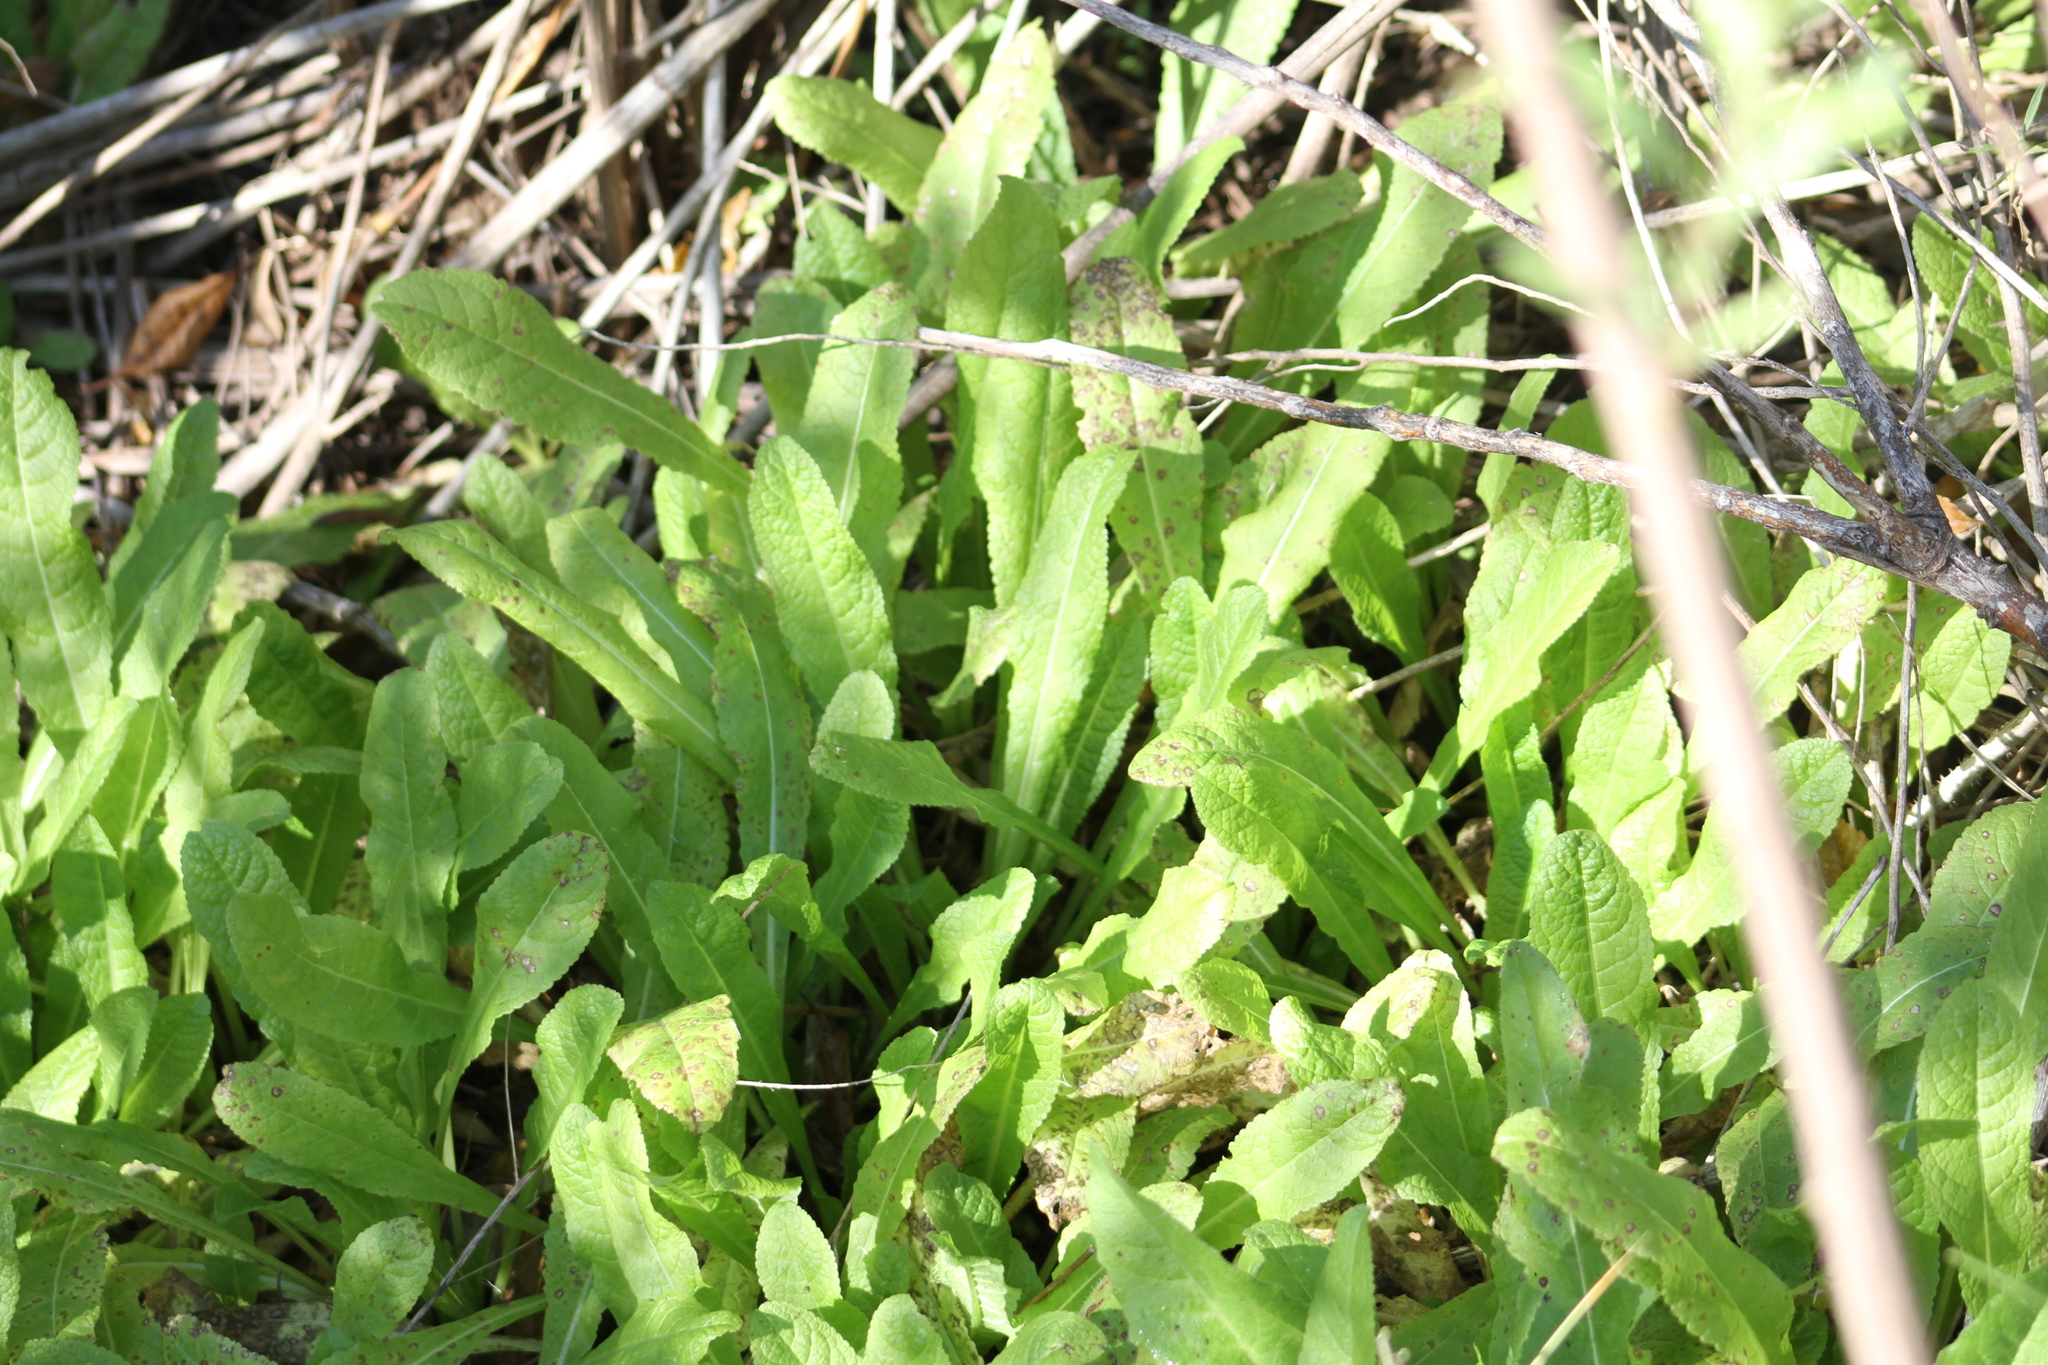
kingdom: Plantae
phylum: Tracheophyta
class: Magnoliopsida
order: Dipsacales
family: Caprifoliaceae
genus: Dipsacus
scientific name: Dipsacus fullonum
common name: Teasel
